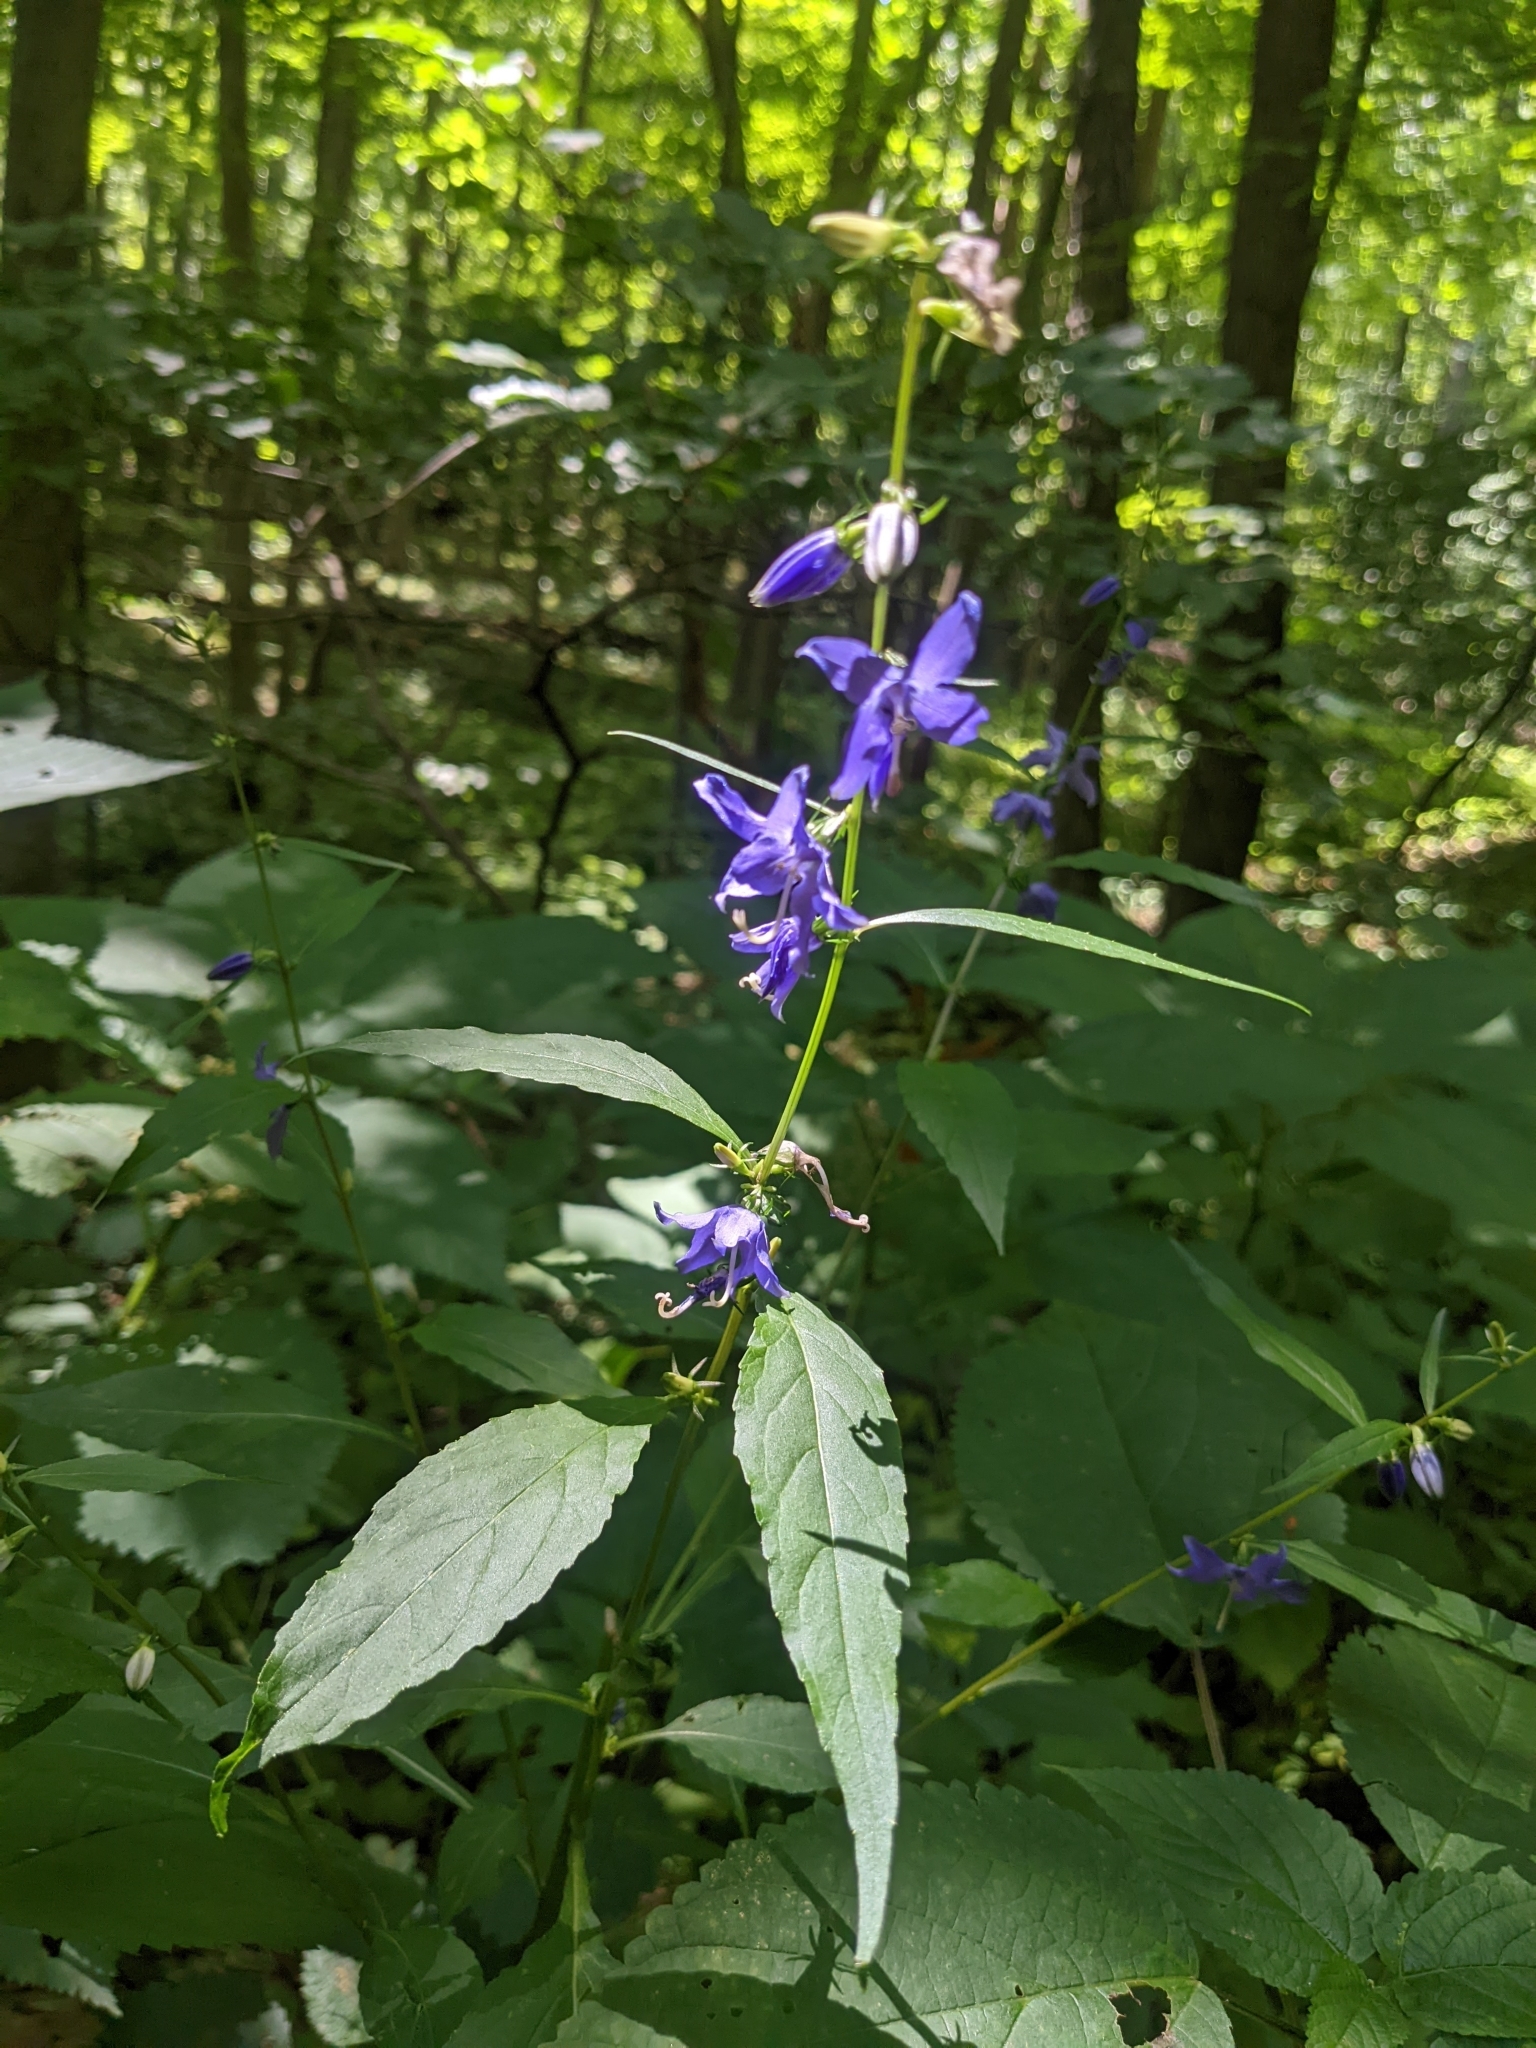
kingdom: Plantae
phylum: Tracheophyta
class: Magnoliopsida
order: Asterales
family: Campanulaceae
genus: Campanulastrum
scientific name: Campanulastrum americanum
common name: American bellflower
